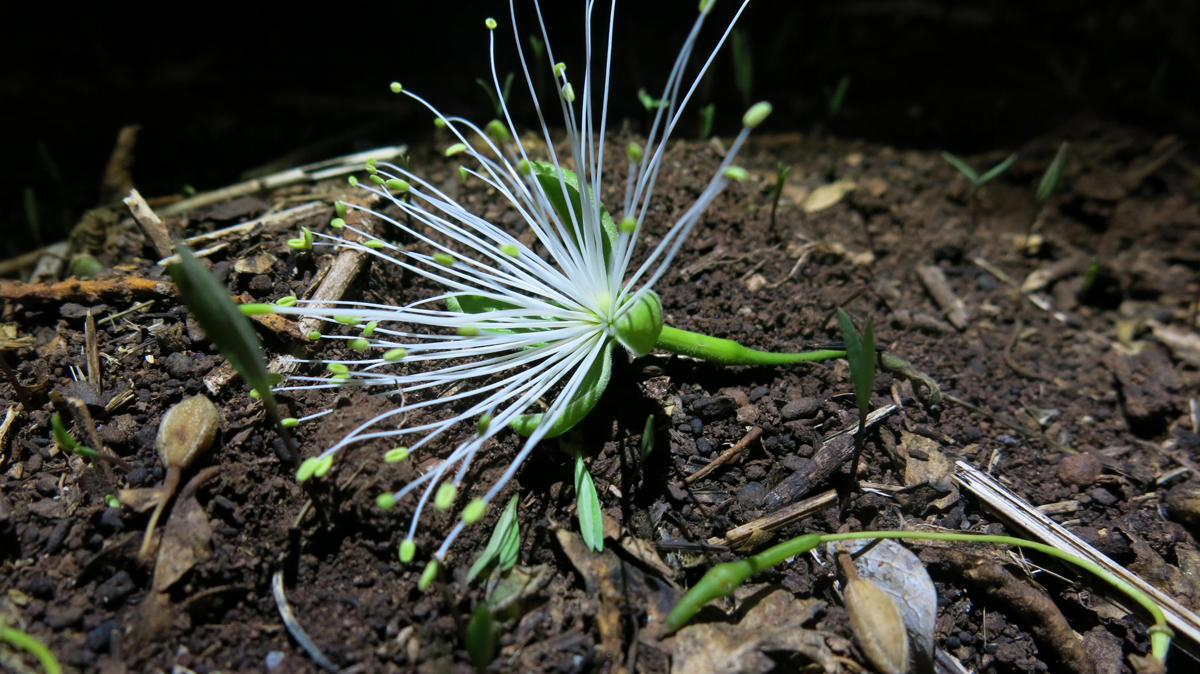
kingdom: Plantae
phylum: Tracheophyta
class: Magnoliopsida
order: Brassicales
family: Capparaceae
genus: Maerua
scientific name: Maerua angolensis
